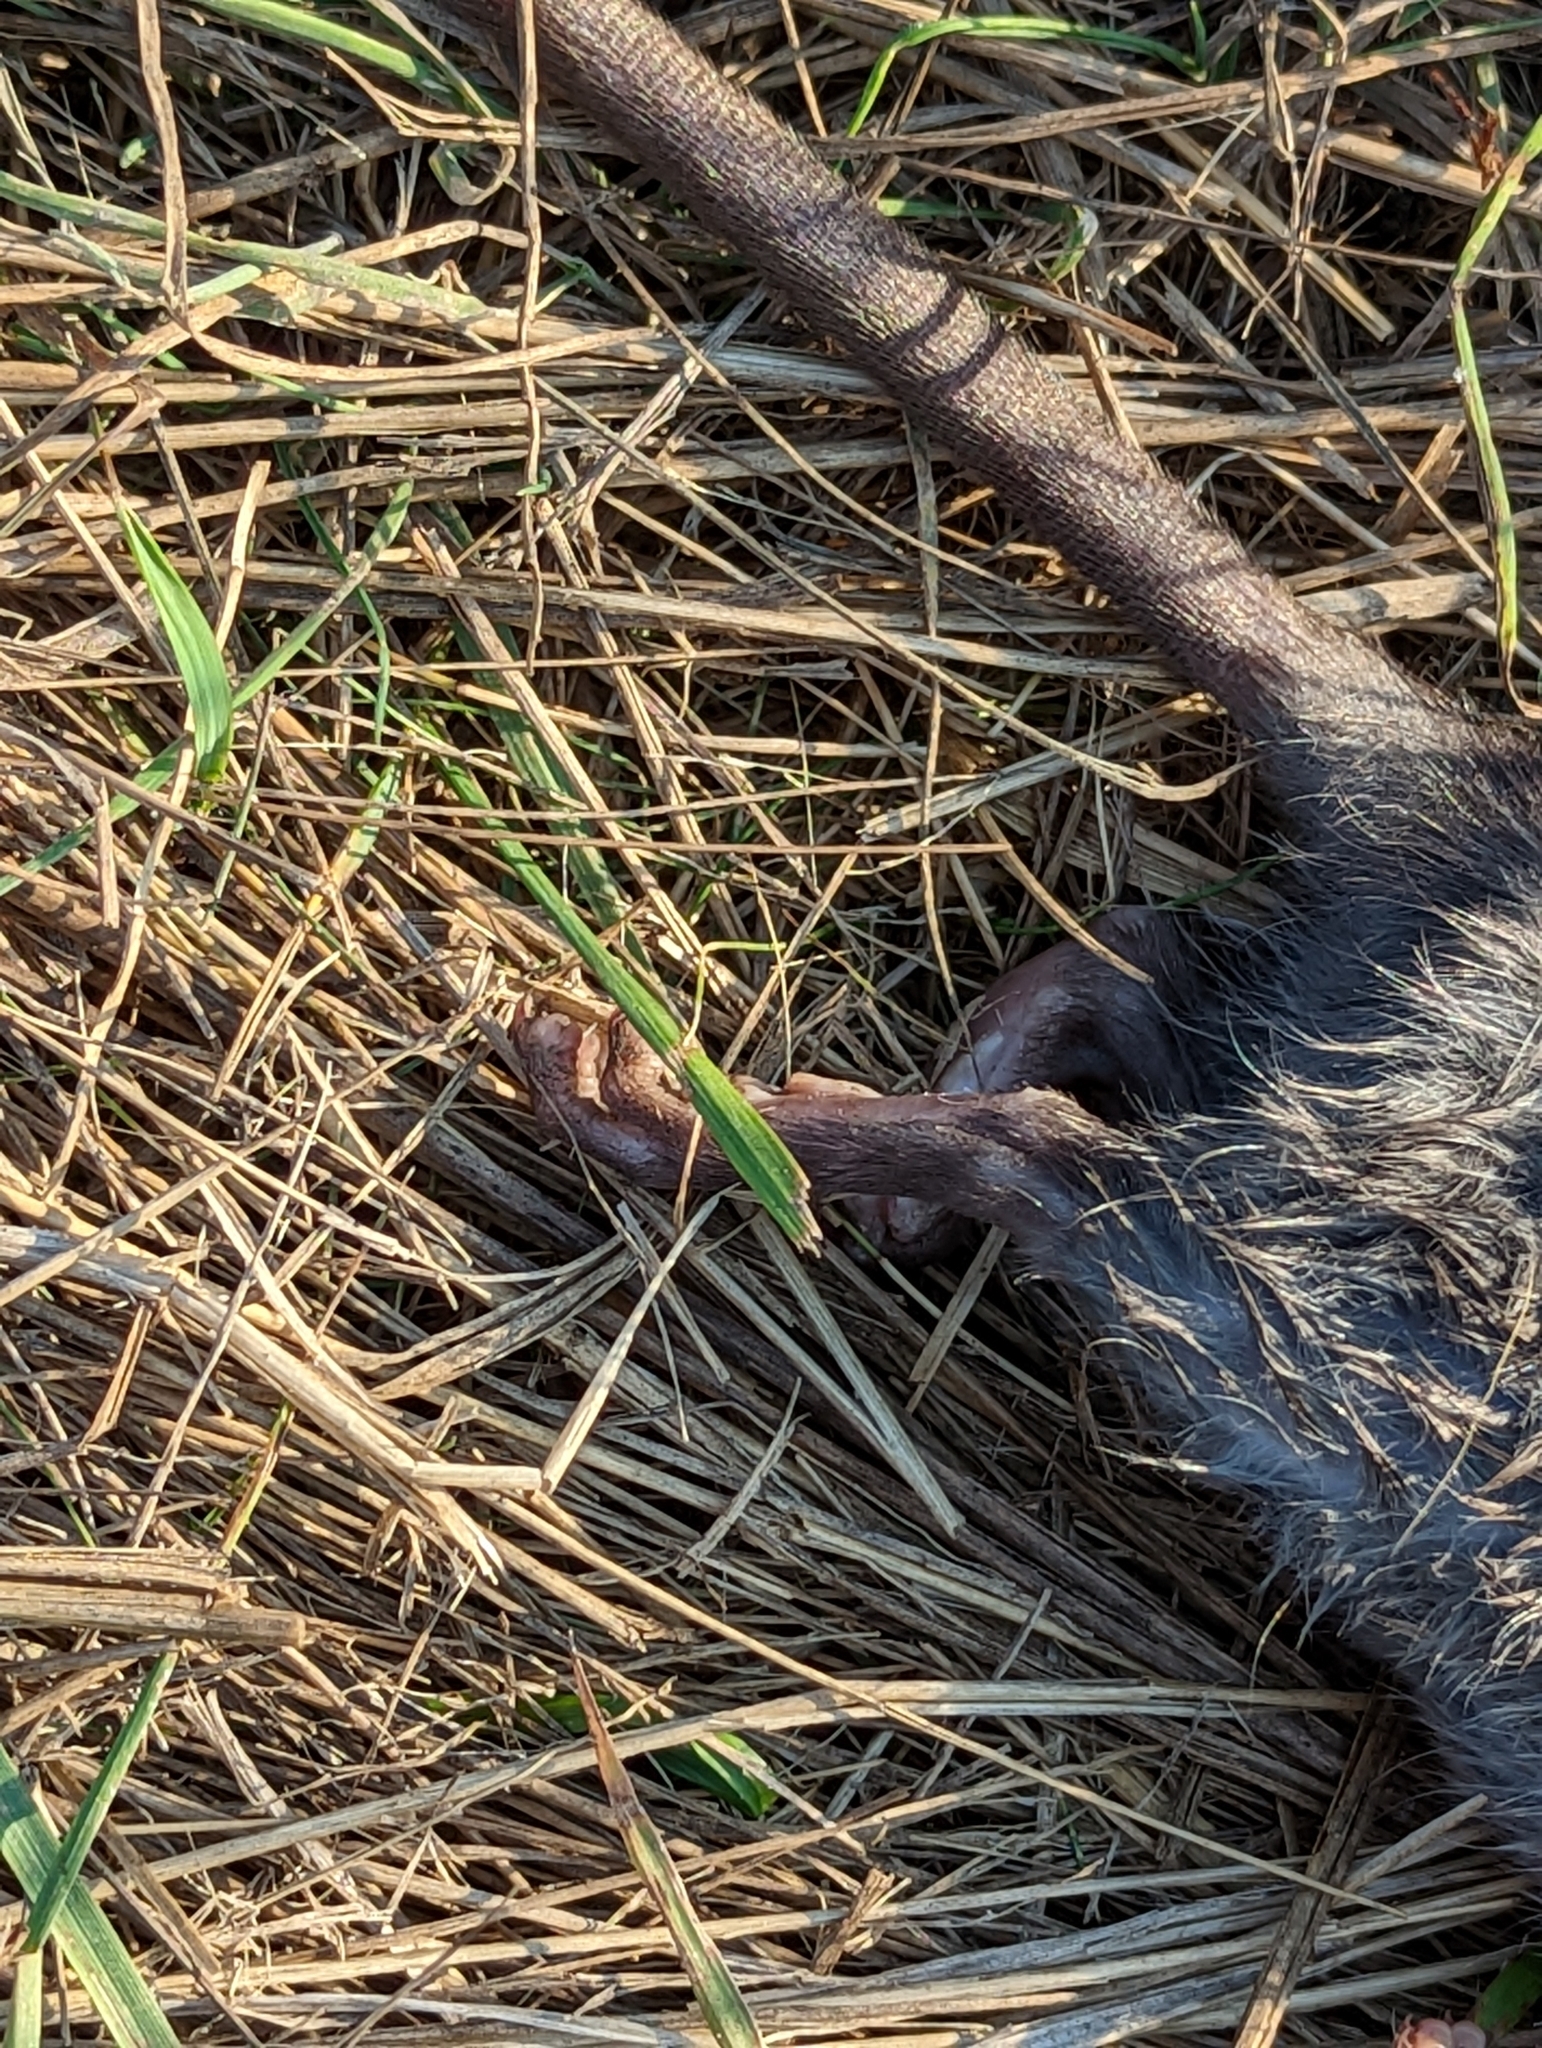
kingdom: Animalia
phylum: Chordata
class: Mammalia
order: Rodentia
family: Muridae
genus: Rattus
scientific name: Rattus rattus
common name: Black rat
